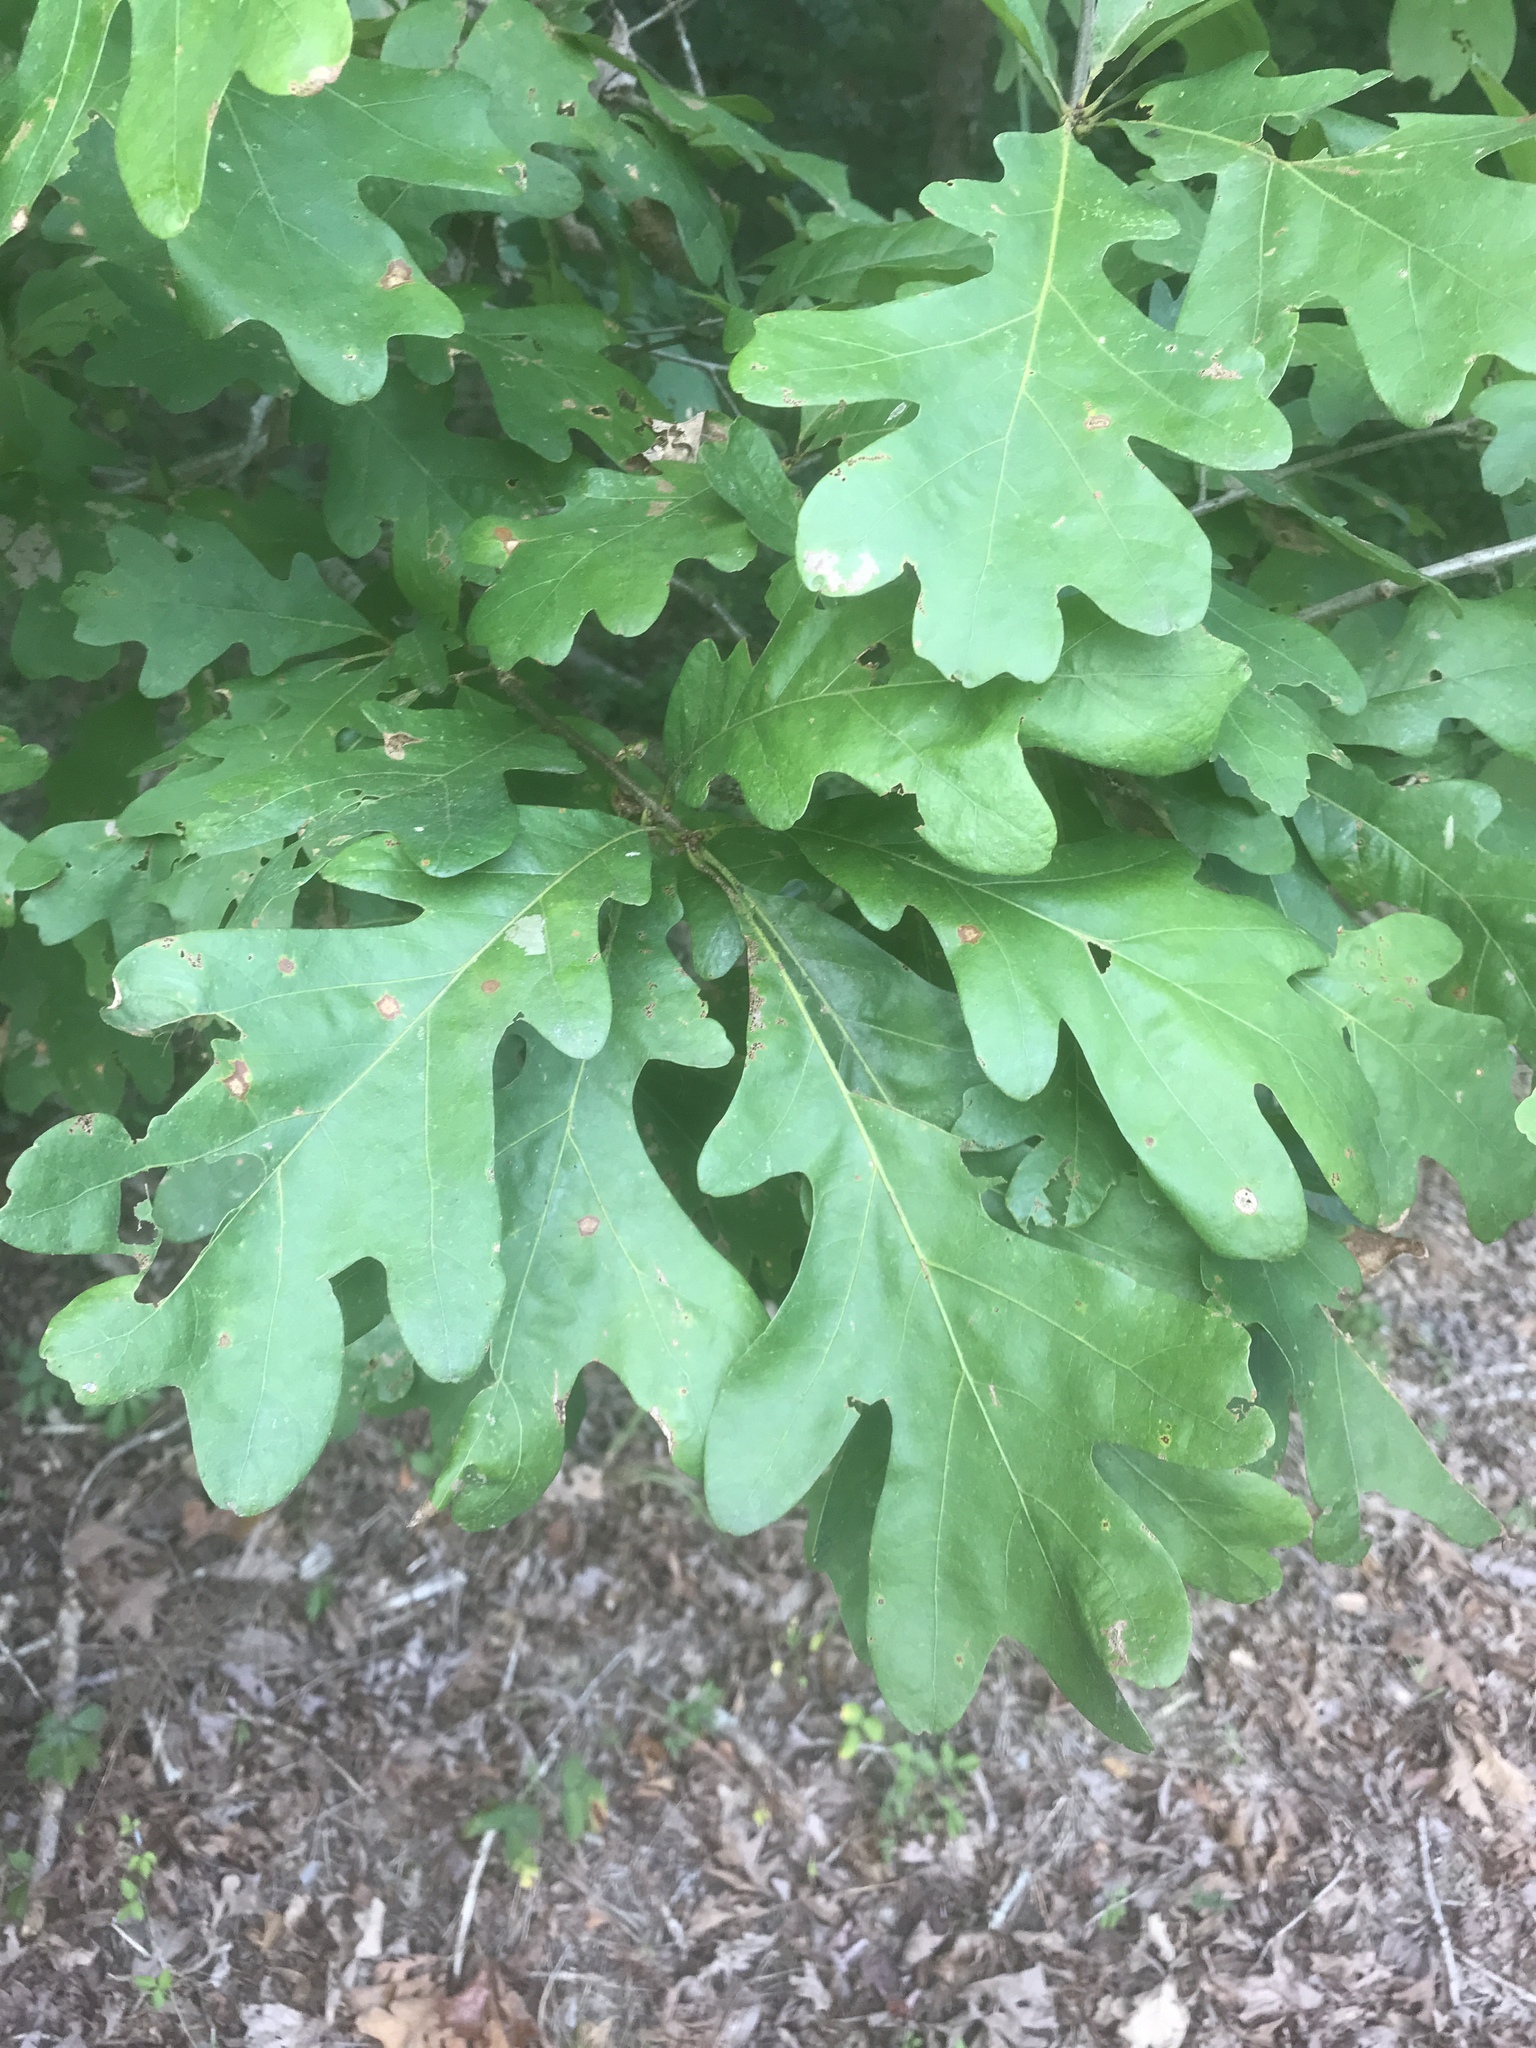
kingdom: Plantae
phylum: Tracheophyta
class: Magnoliopsida
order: Fagales
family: Fagaceae
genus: Quercus
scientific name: Quercus alba
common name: White oak
